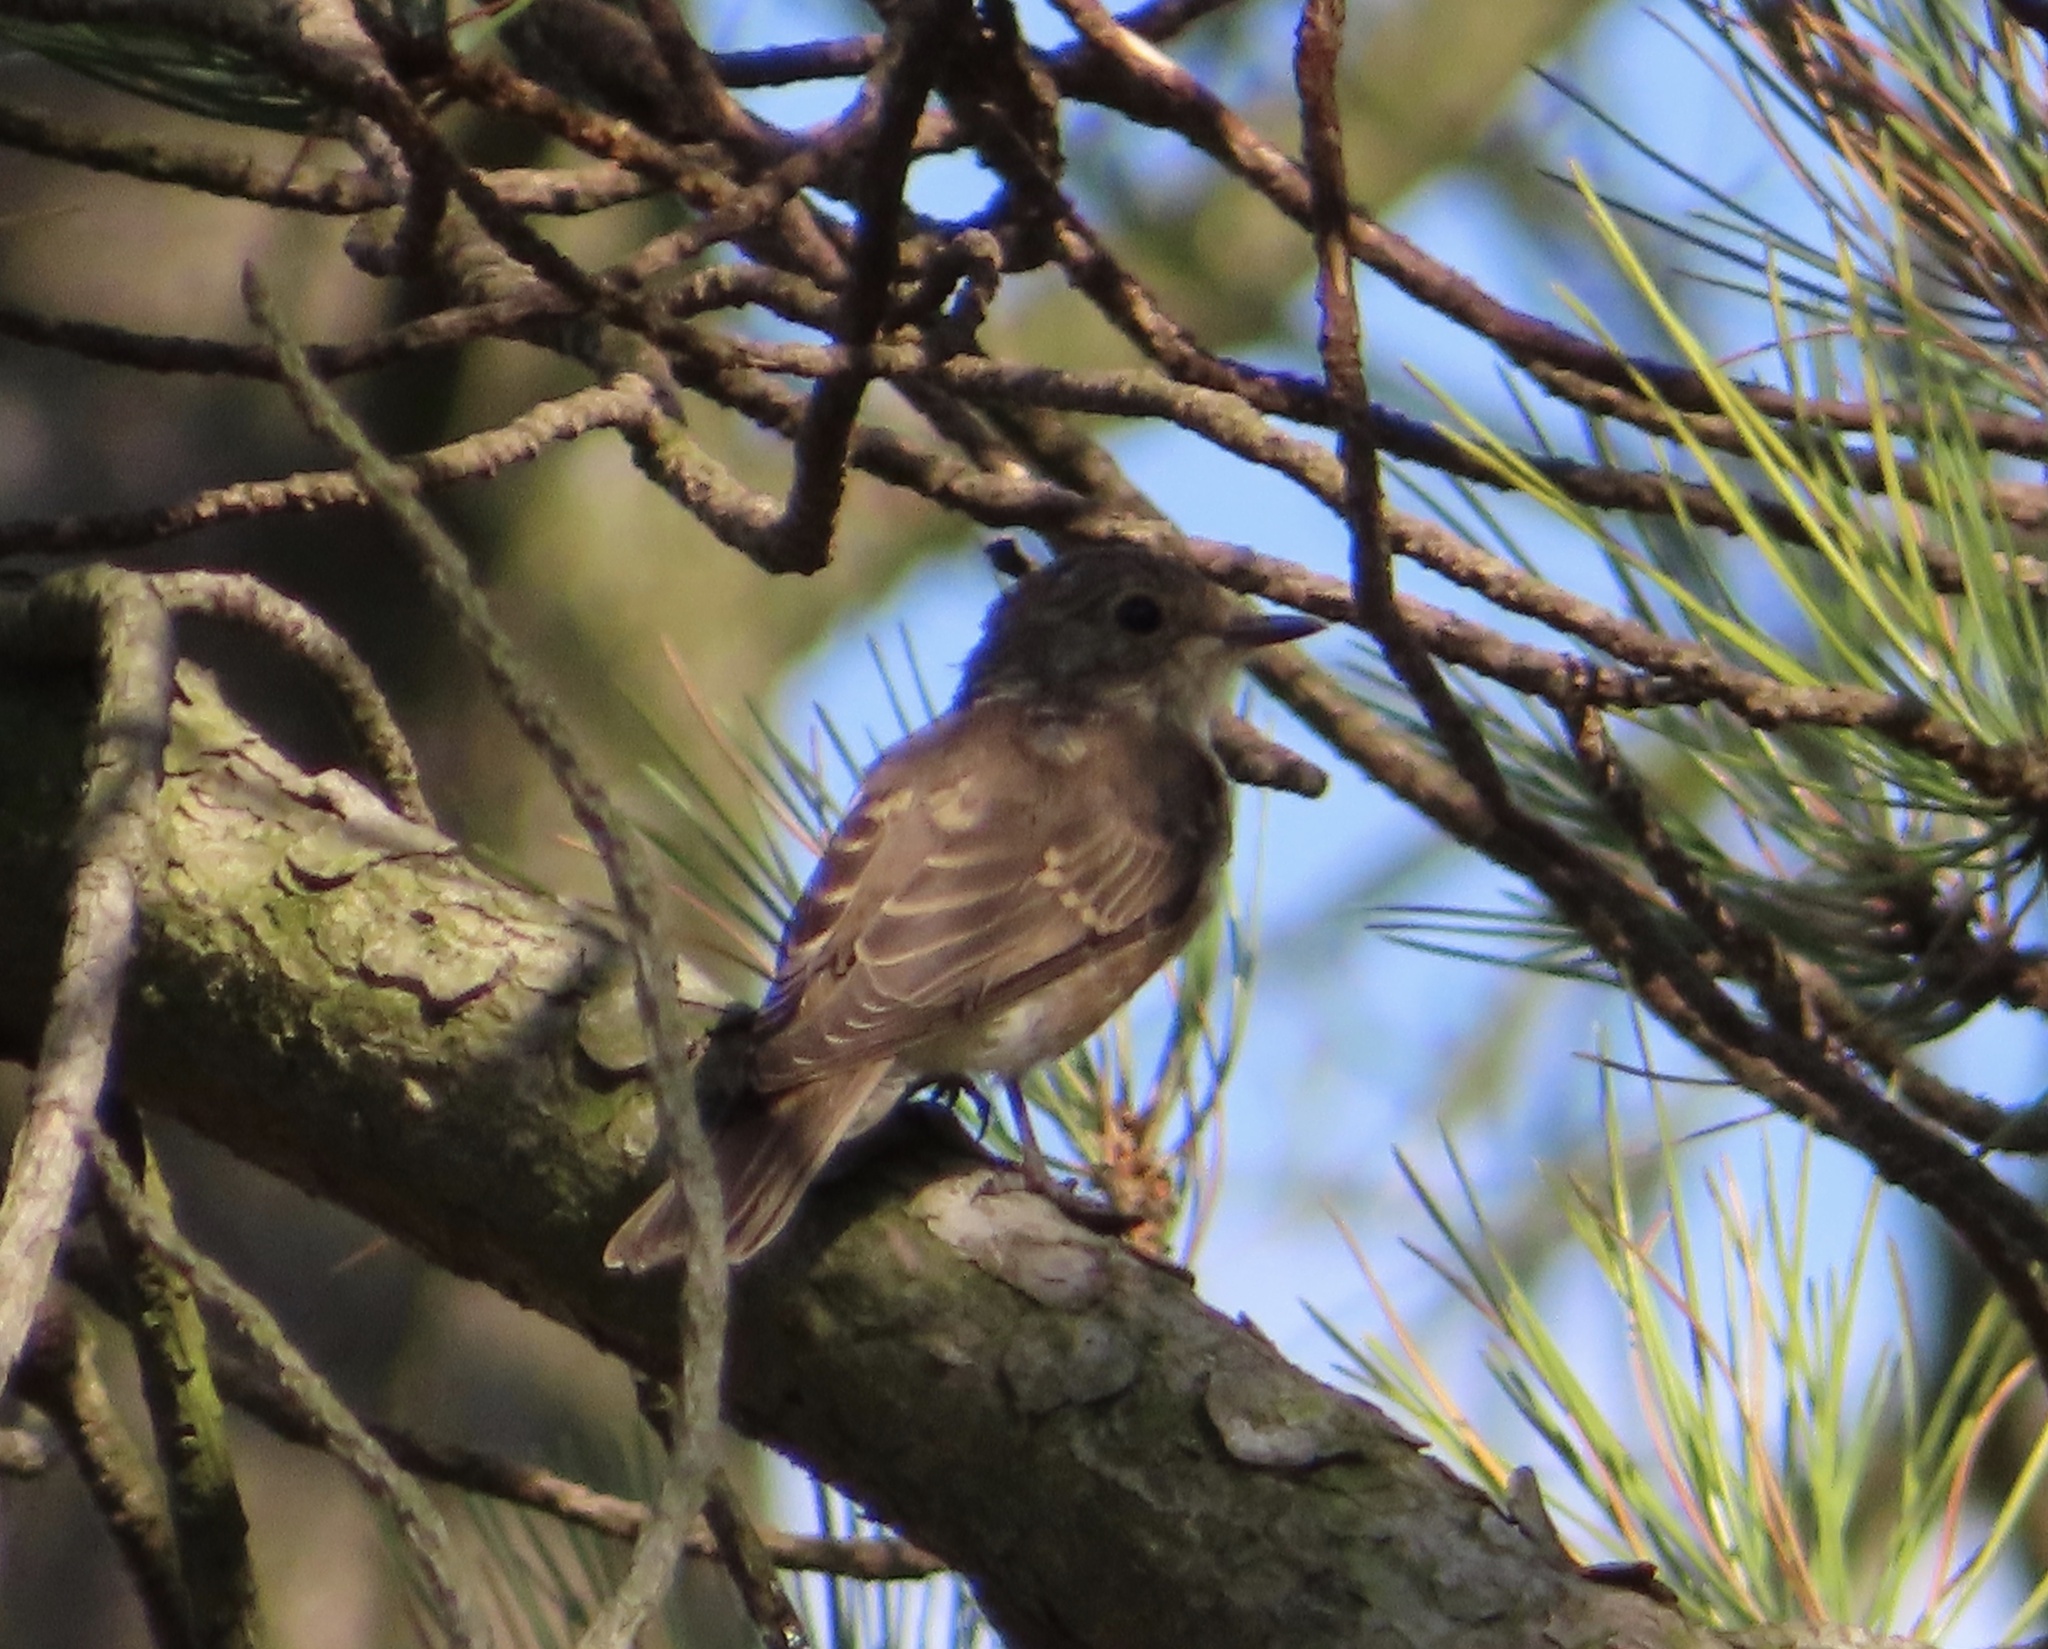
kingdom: Animalia
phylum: Chordata
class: Aves
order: Passeriformes
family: Muscicapidae
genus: Muscicapa
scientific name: Muscicapa striata
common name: Spotted flycatcher
